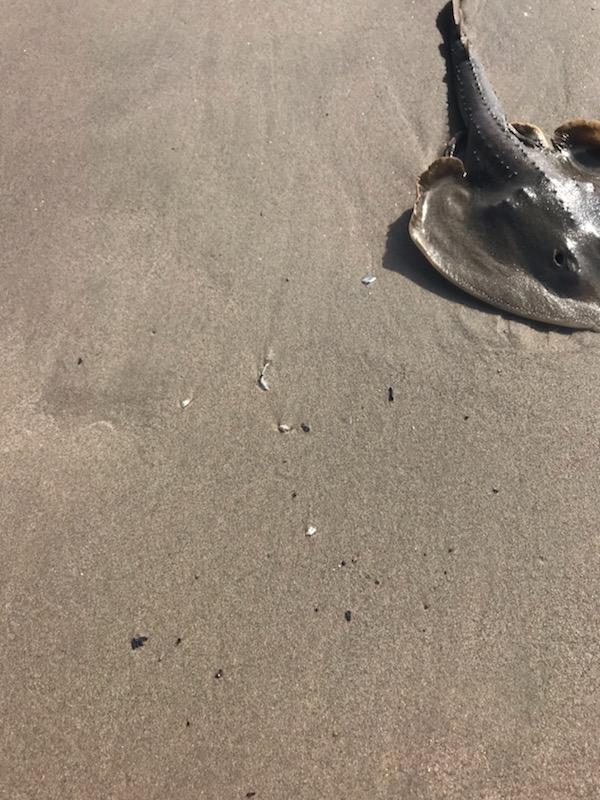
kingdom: Animalia
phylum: Chordata
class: Elasmobranchii
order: Rhinopristiformes
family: Rhinobatidae
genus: Platyrhinoidis
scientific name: Platyrhinoidis triseriata
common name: Thornback
